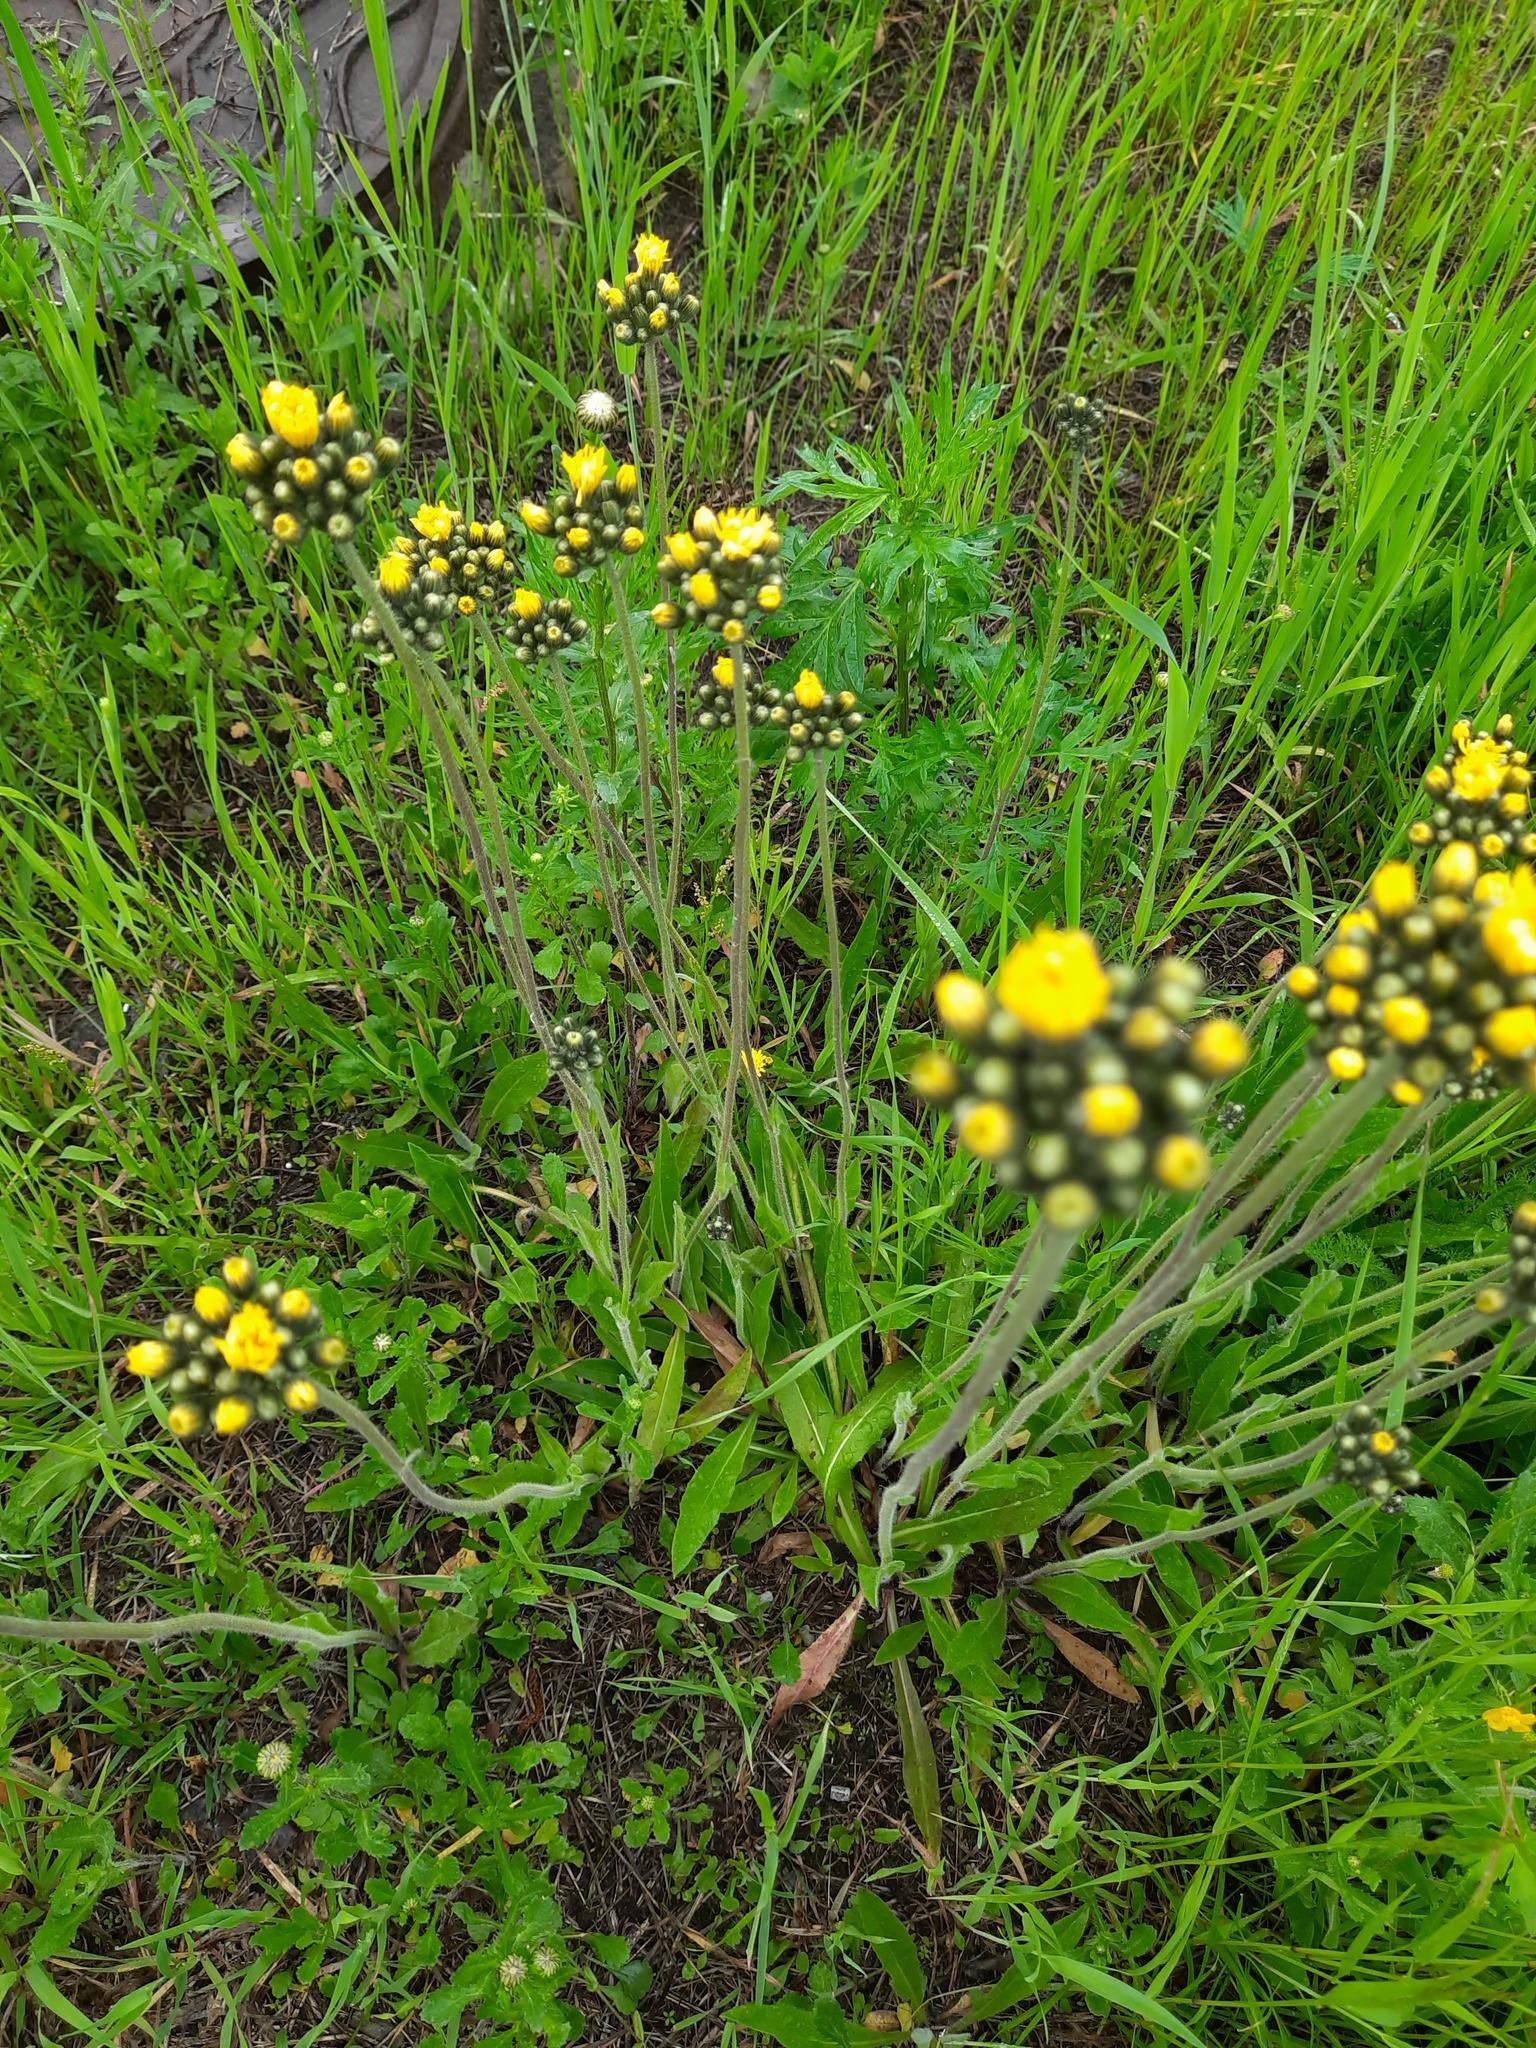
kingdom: Plantae
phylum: Tracheophyta
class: Magnoliopsida
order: Asterales
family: Asteraceae
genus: Pilosella
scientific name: Pilosella
